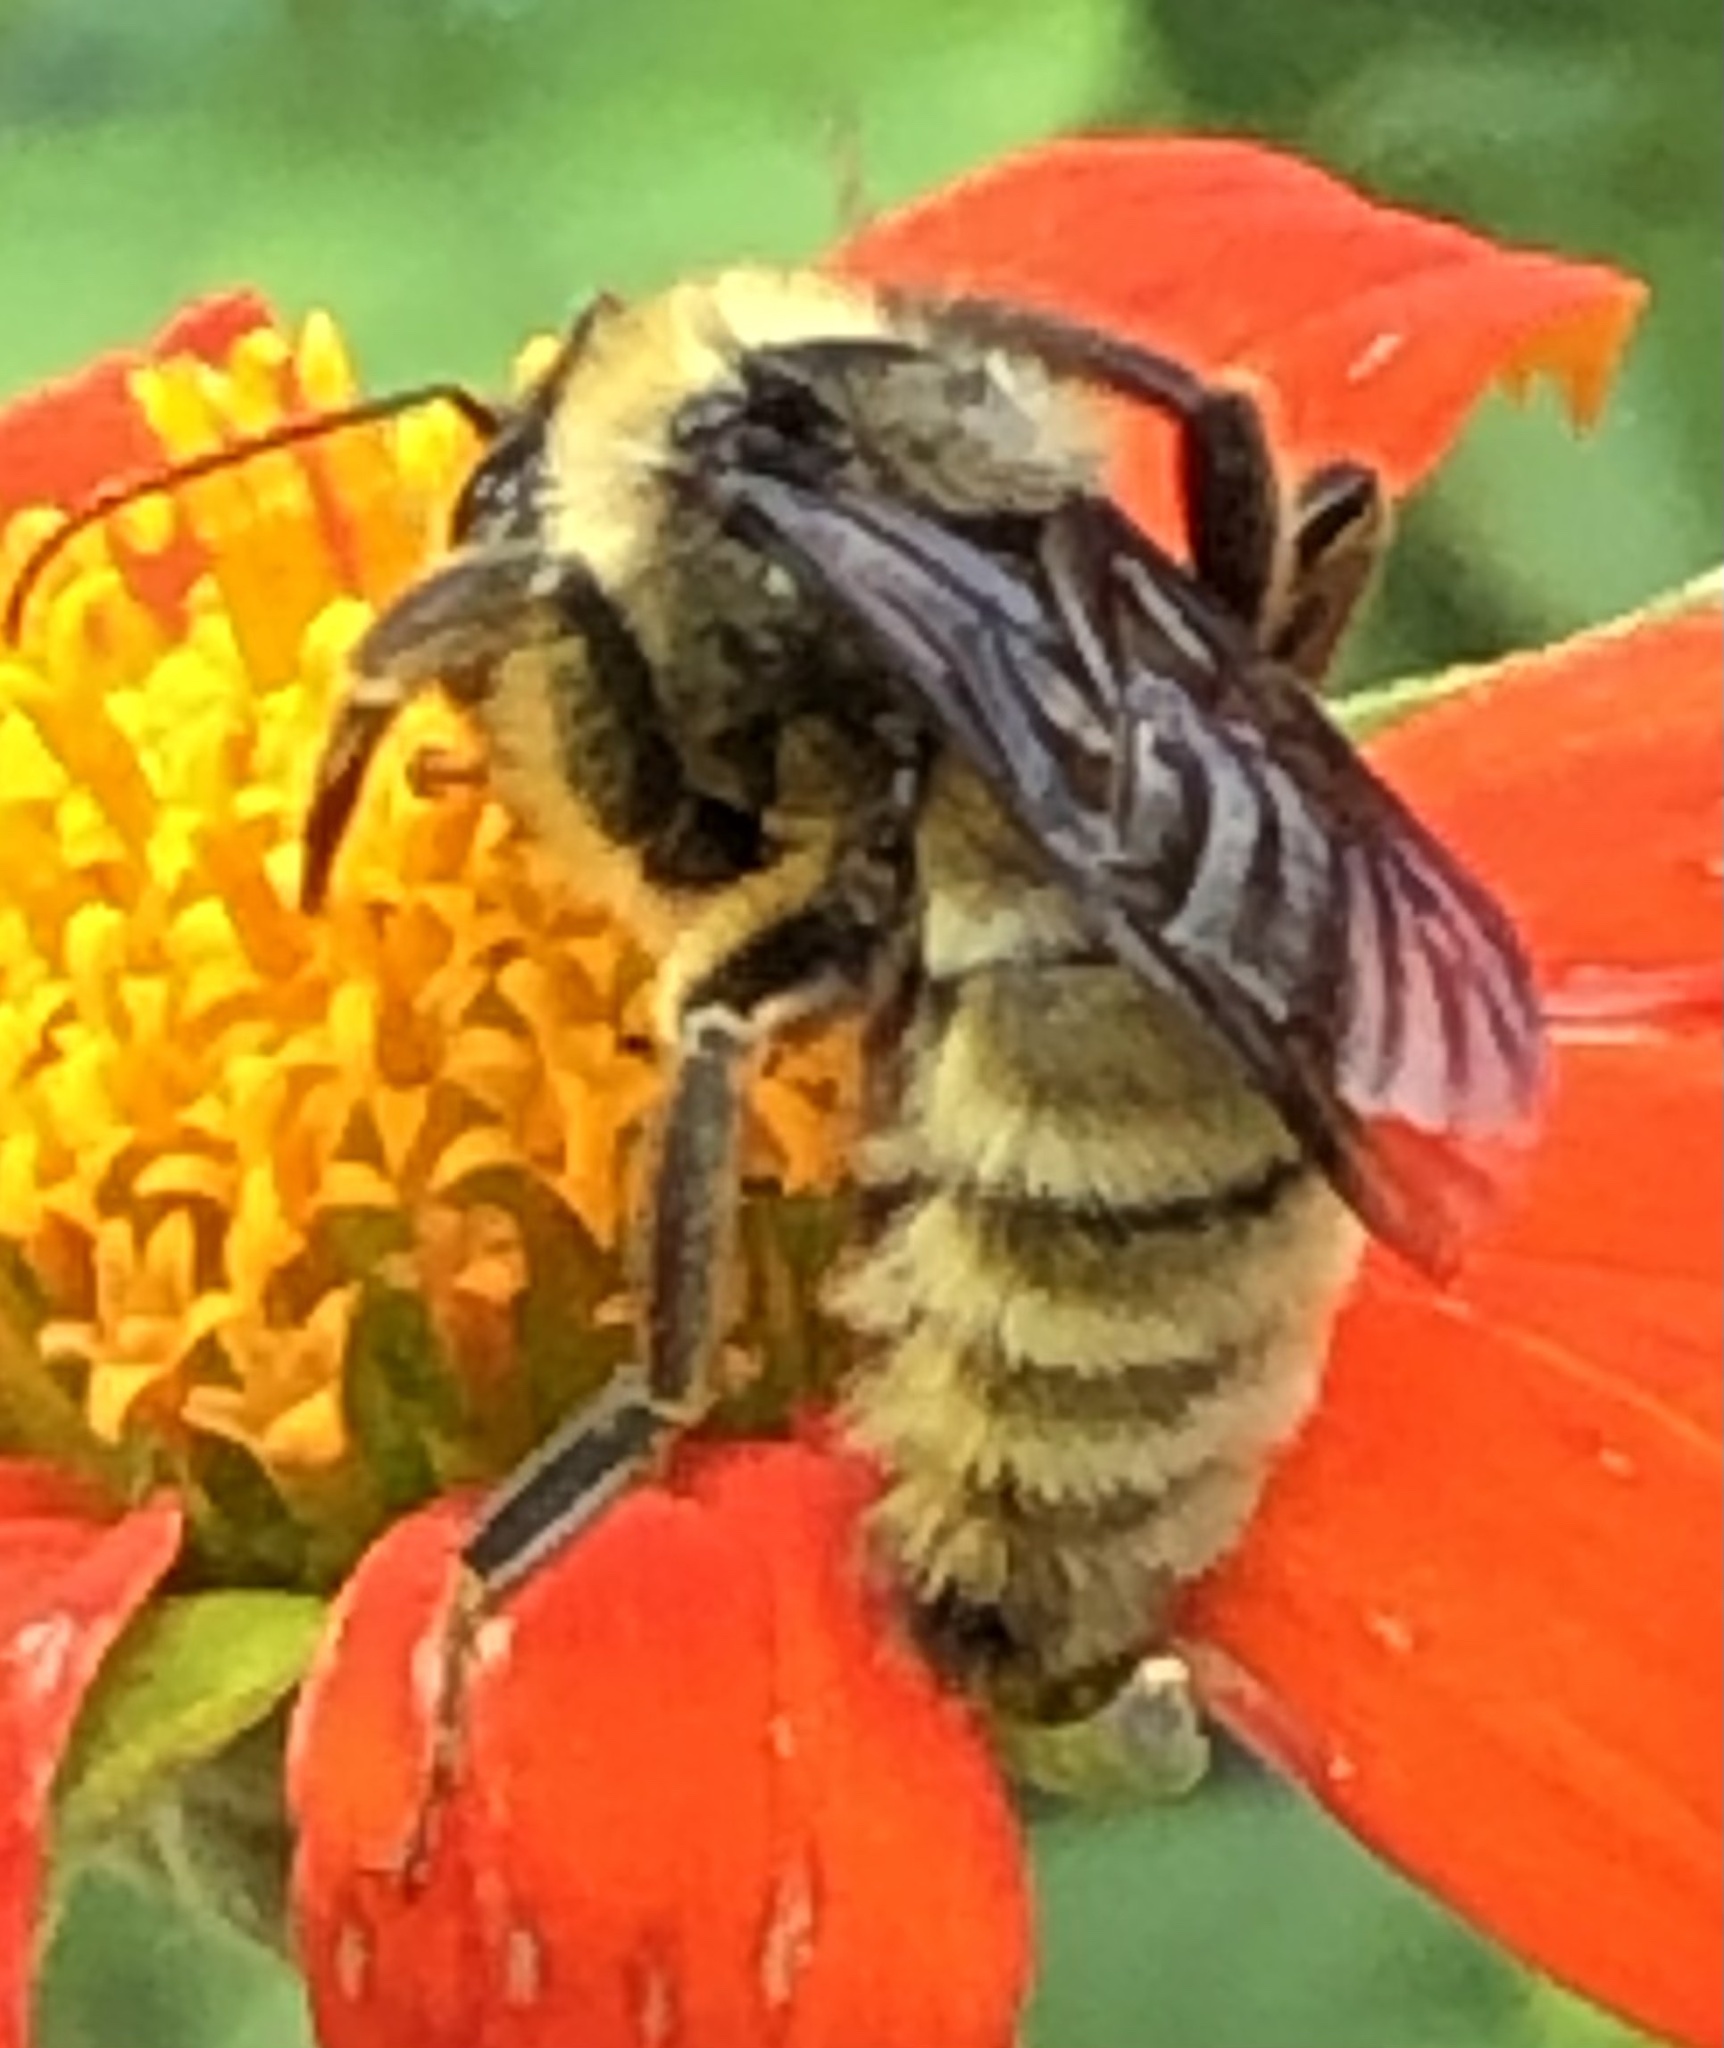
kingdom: Animalia
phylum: Arthropoda
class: Insecta
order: Hymenoptera
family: Apidae
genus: Bombus
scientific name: Bombus pensylvanicus
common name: Bumble bee
